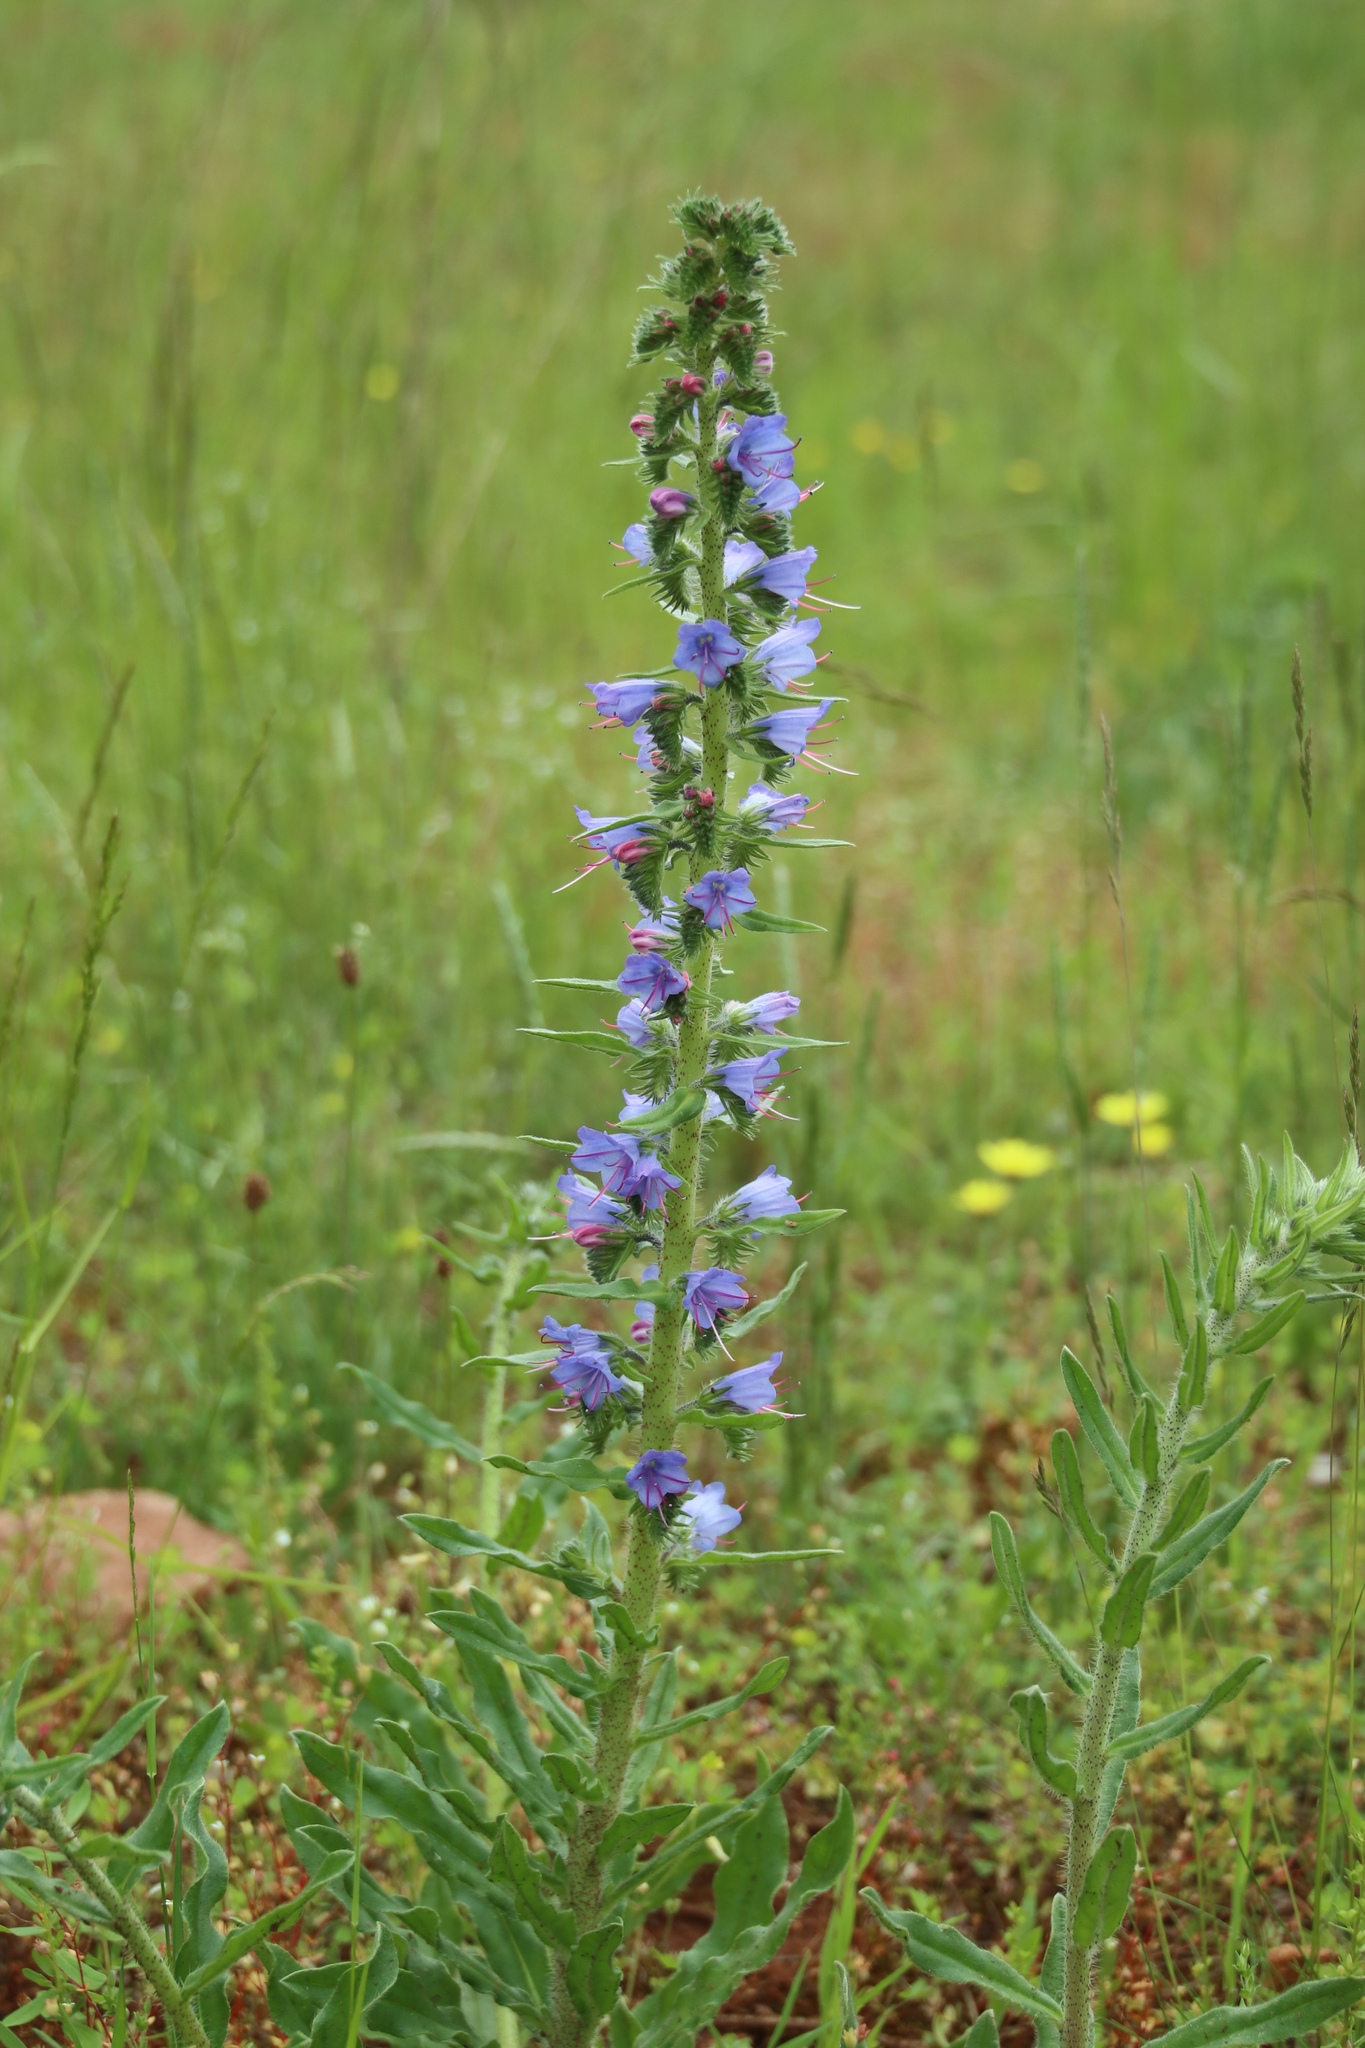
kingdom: Plantae
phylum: Tracheophyta
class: Magnoliopsida
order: Boraginales
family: Boraginaceae
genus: Echium
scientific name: Echium vulgare
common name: Common viper's bugloss
